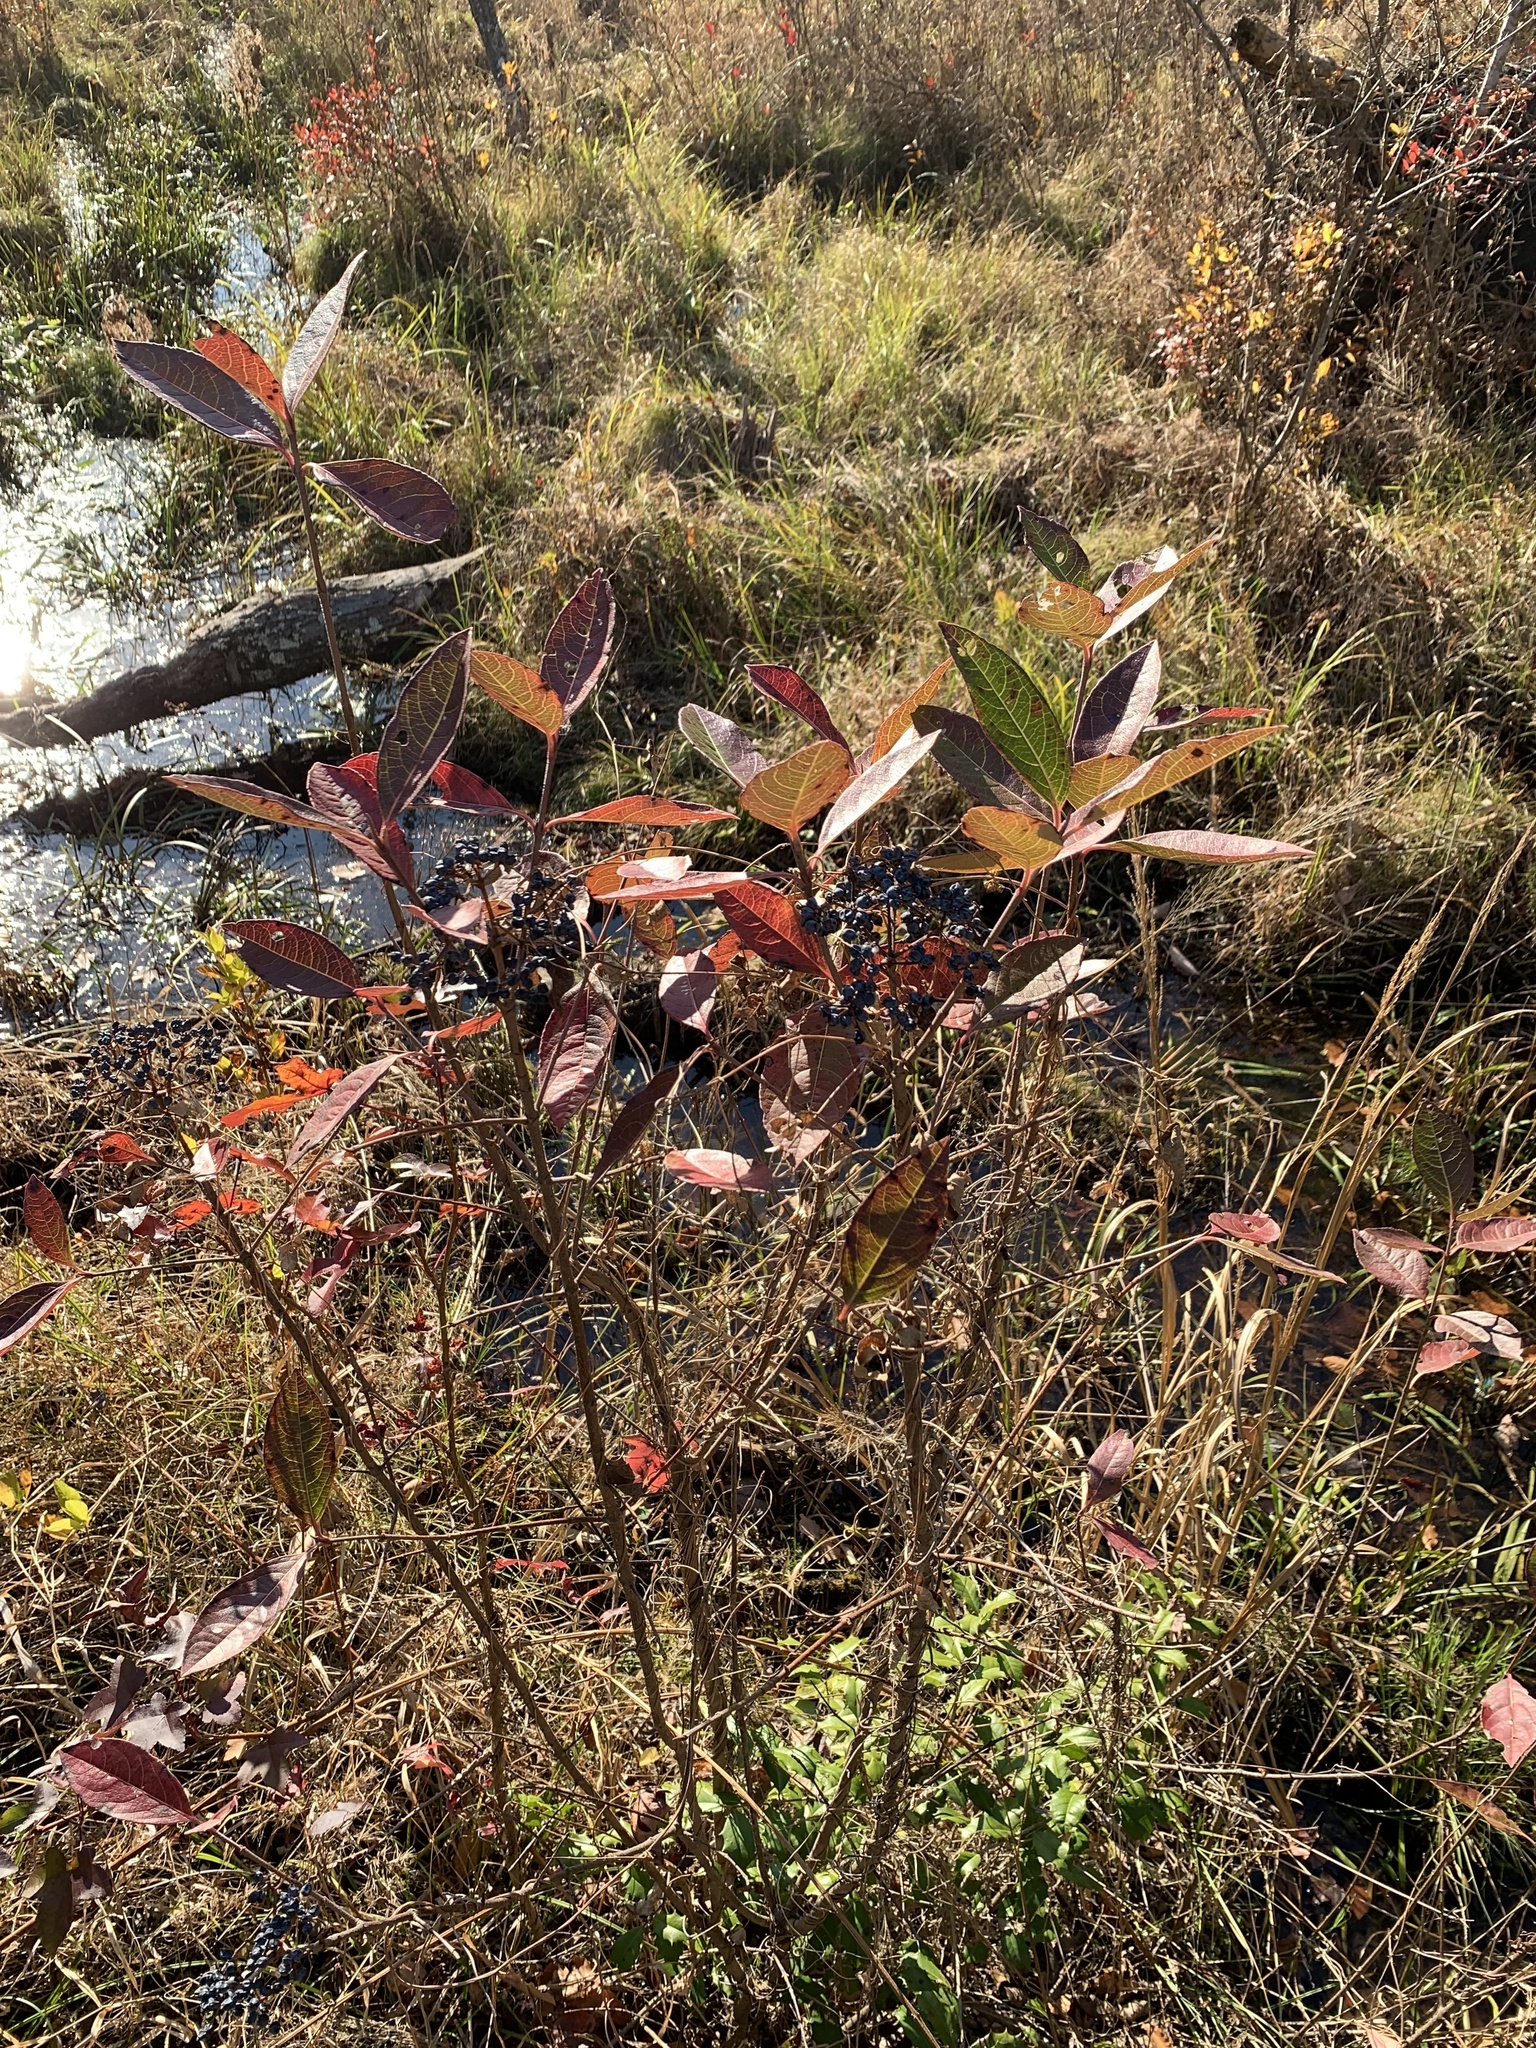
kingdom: Plantae
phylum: Tracheophyta
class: Magnoliopsida
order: Dipsacales
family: Viburnaceae
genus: Viburnum
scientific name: Viburnum nudum
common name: Possum haw
